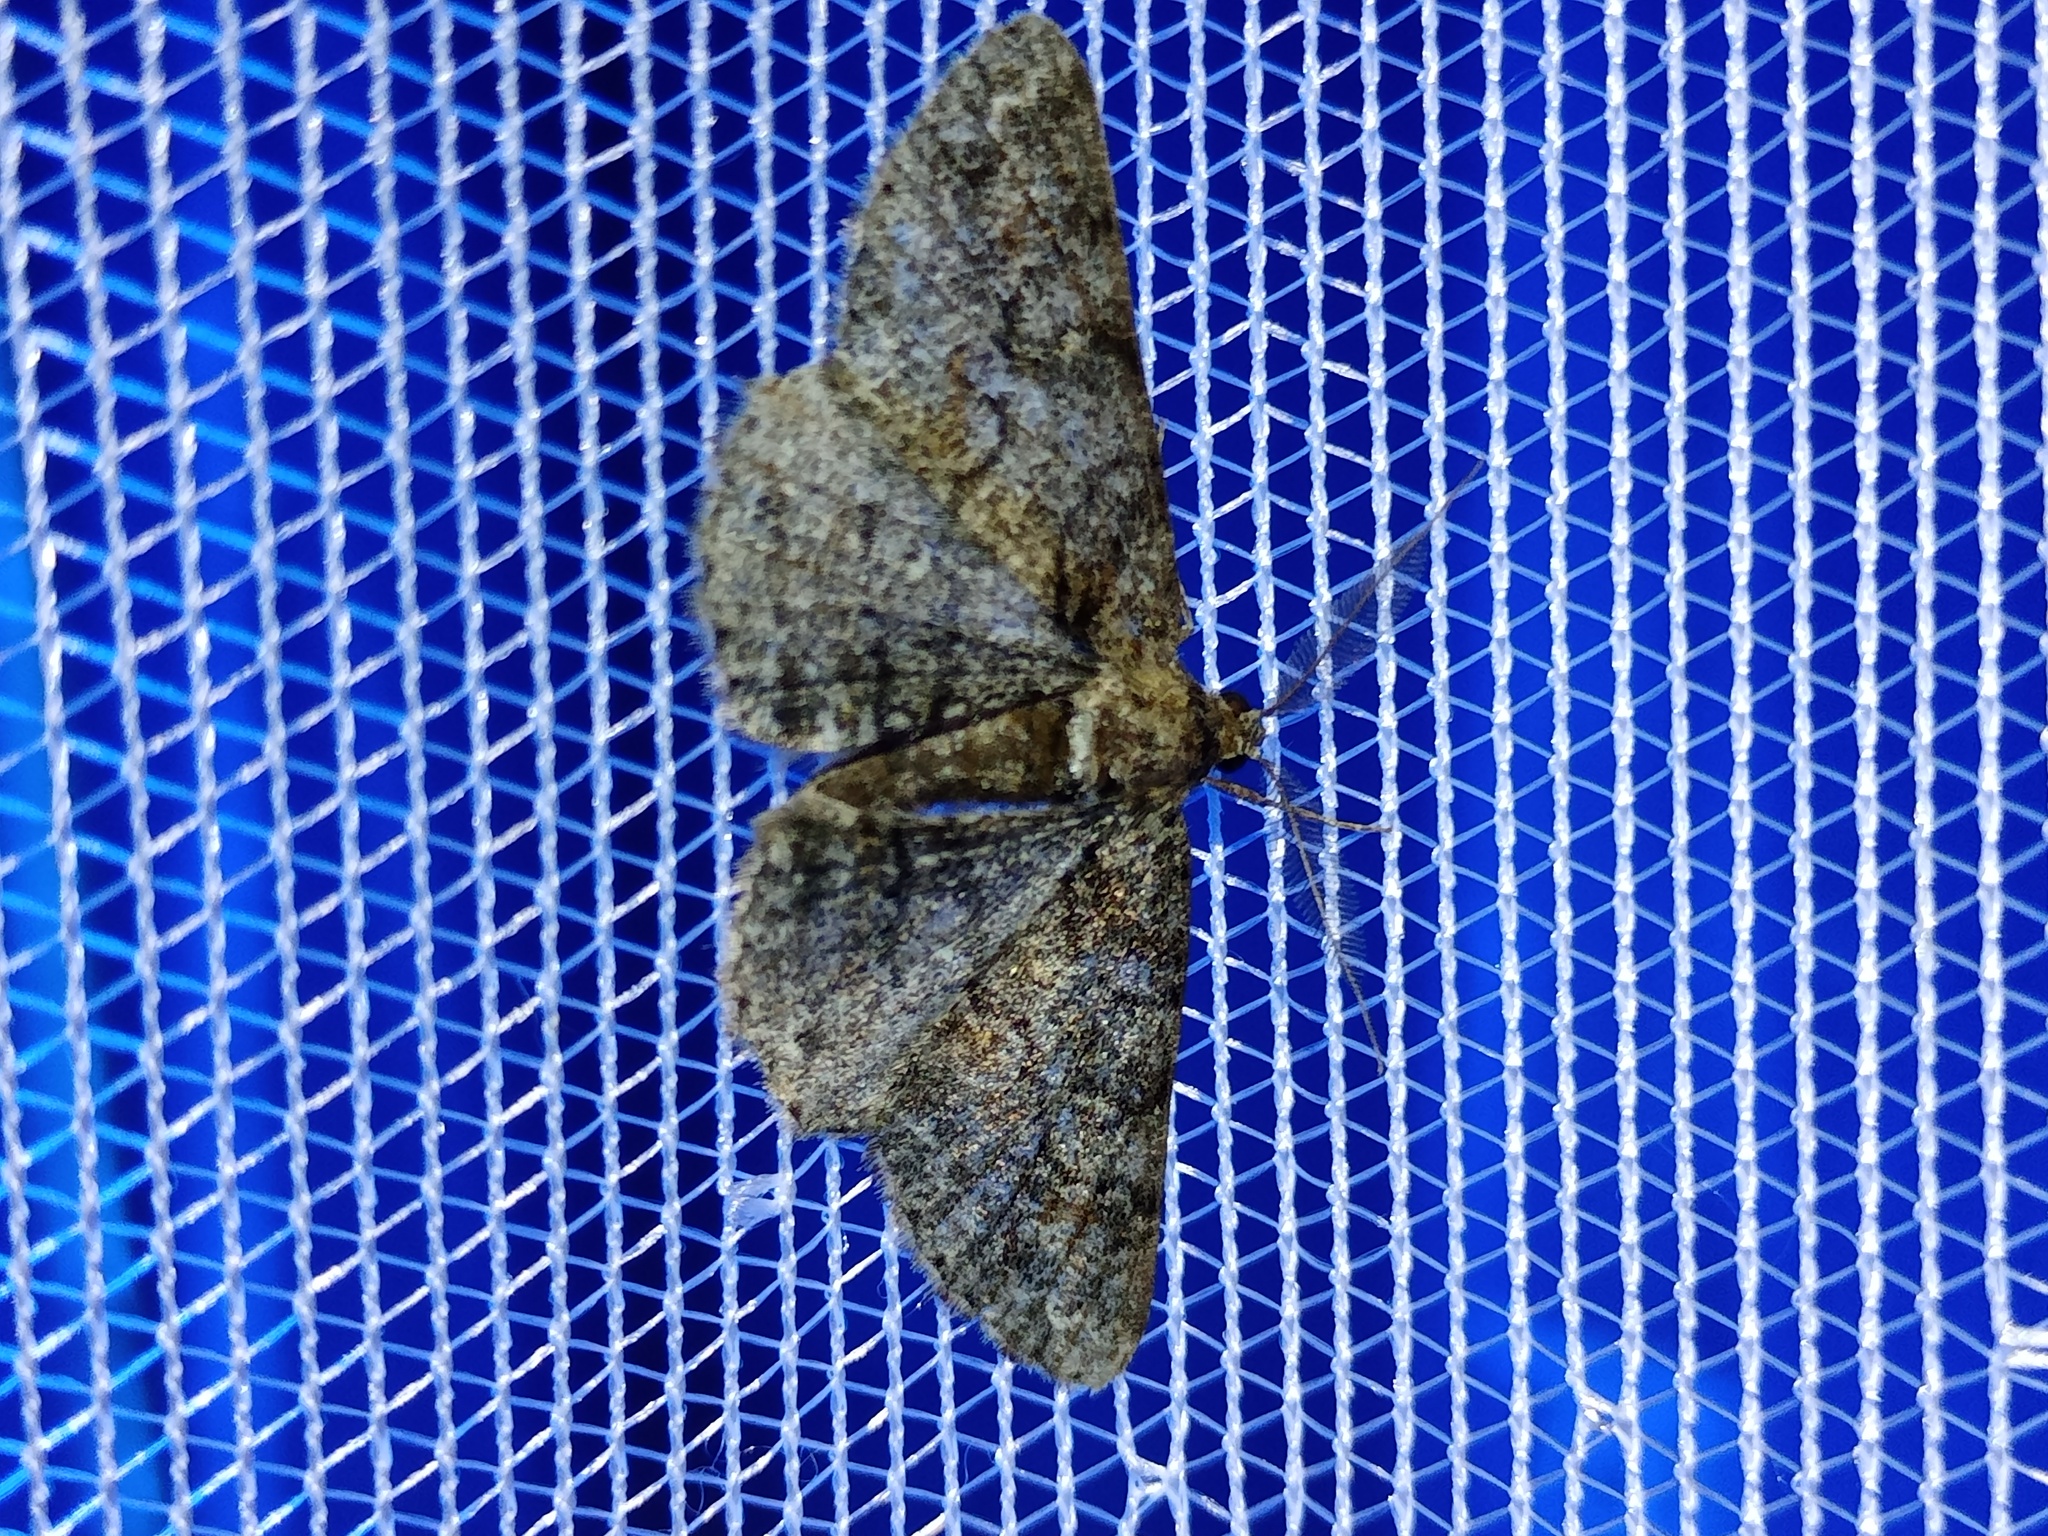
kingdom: Animalia
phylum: Arthropoda
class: Insecta
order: Lepidoptera
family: Geometridae
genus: Cleora
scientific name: Cleora cinctaria
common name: Ringed carpet
